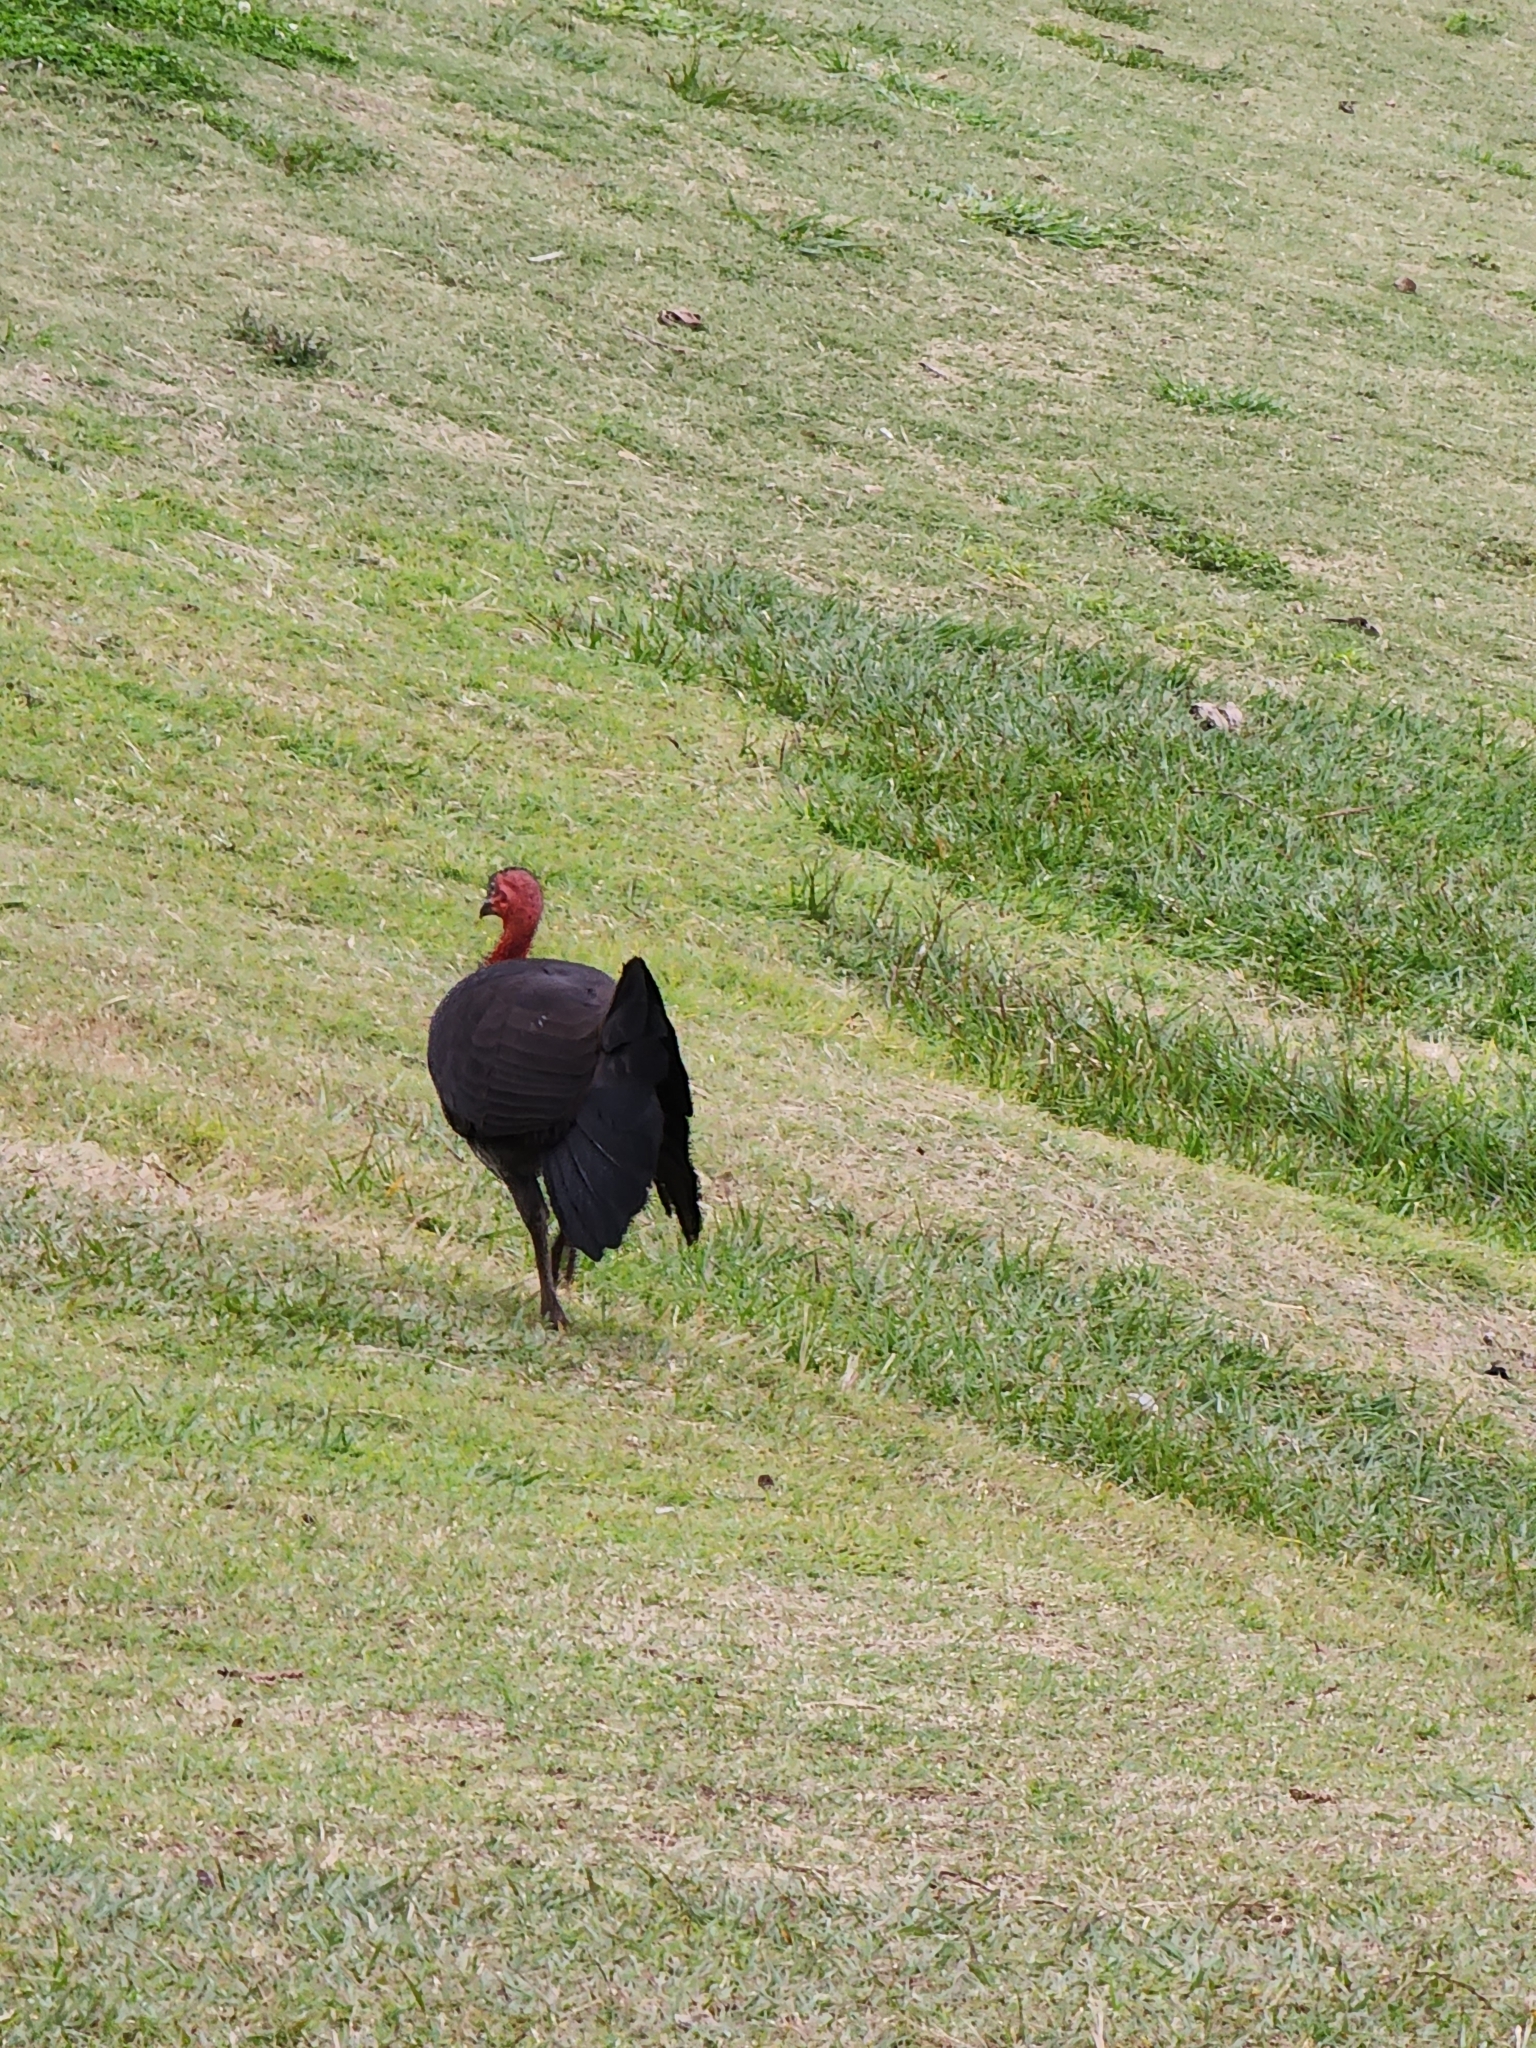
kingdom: Animalia
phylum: Chordata
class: Aves
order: Galliformes
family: Megapodiidae
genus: Alectura
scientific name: Alectura lathami
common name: Australian brushturkey
